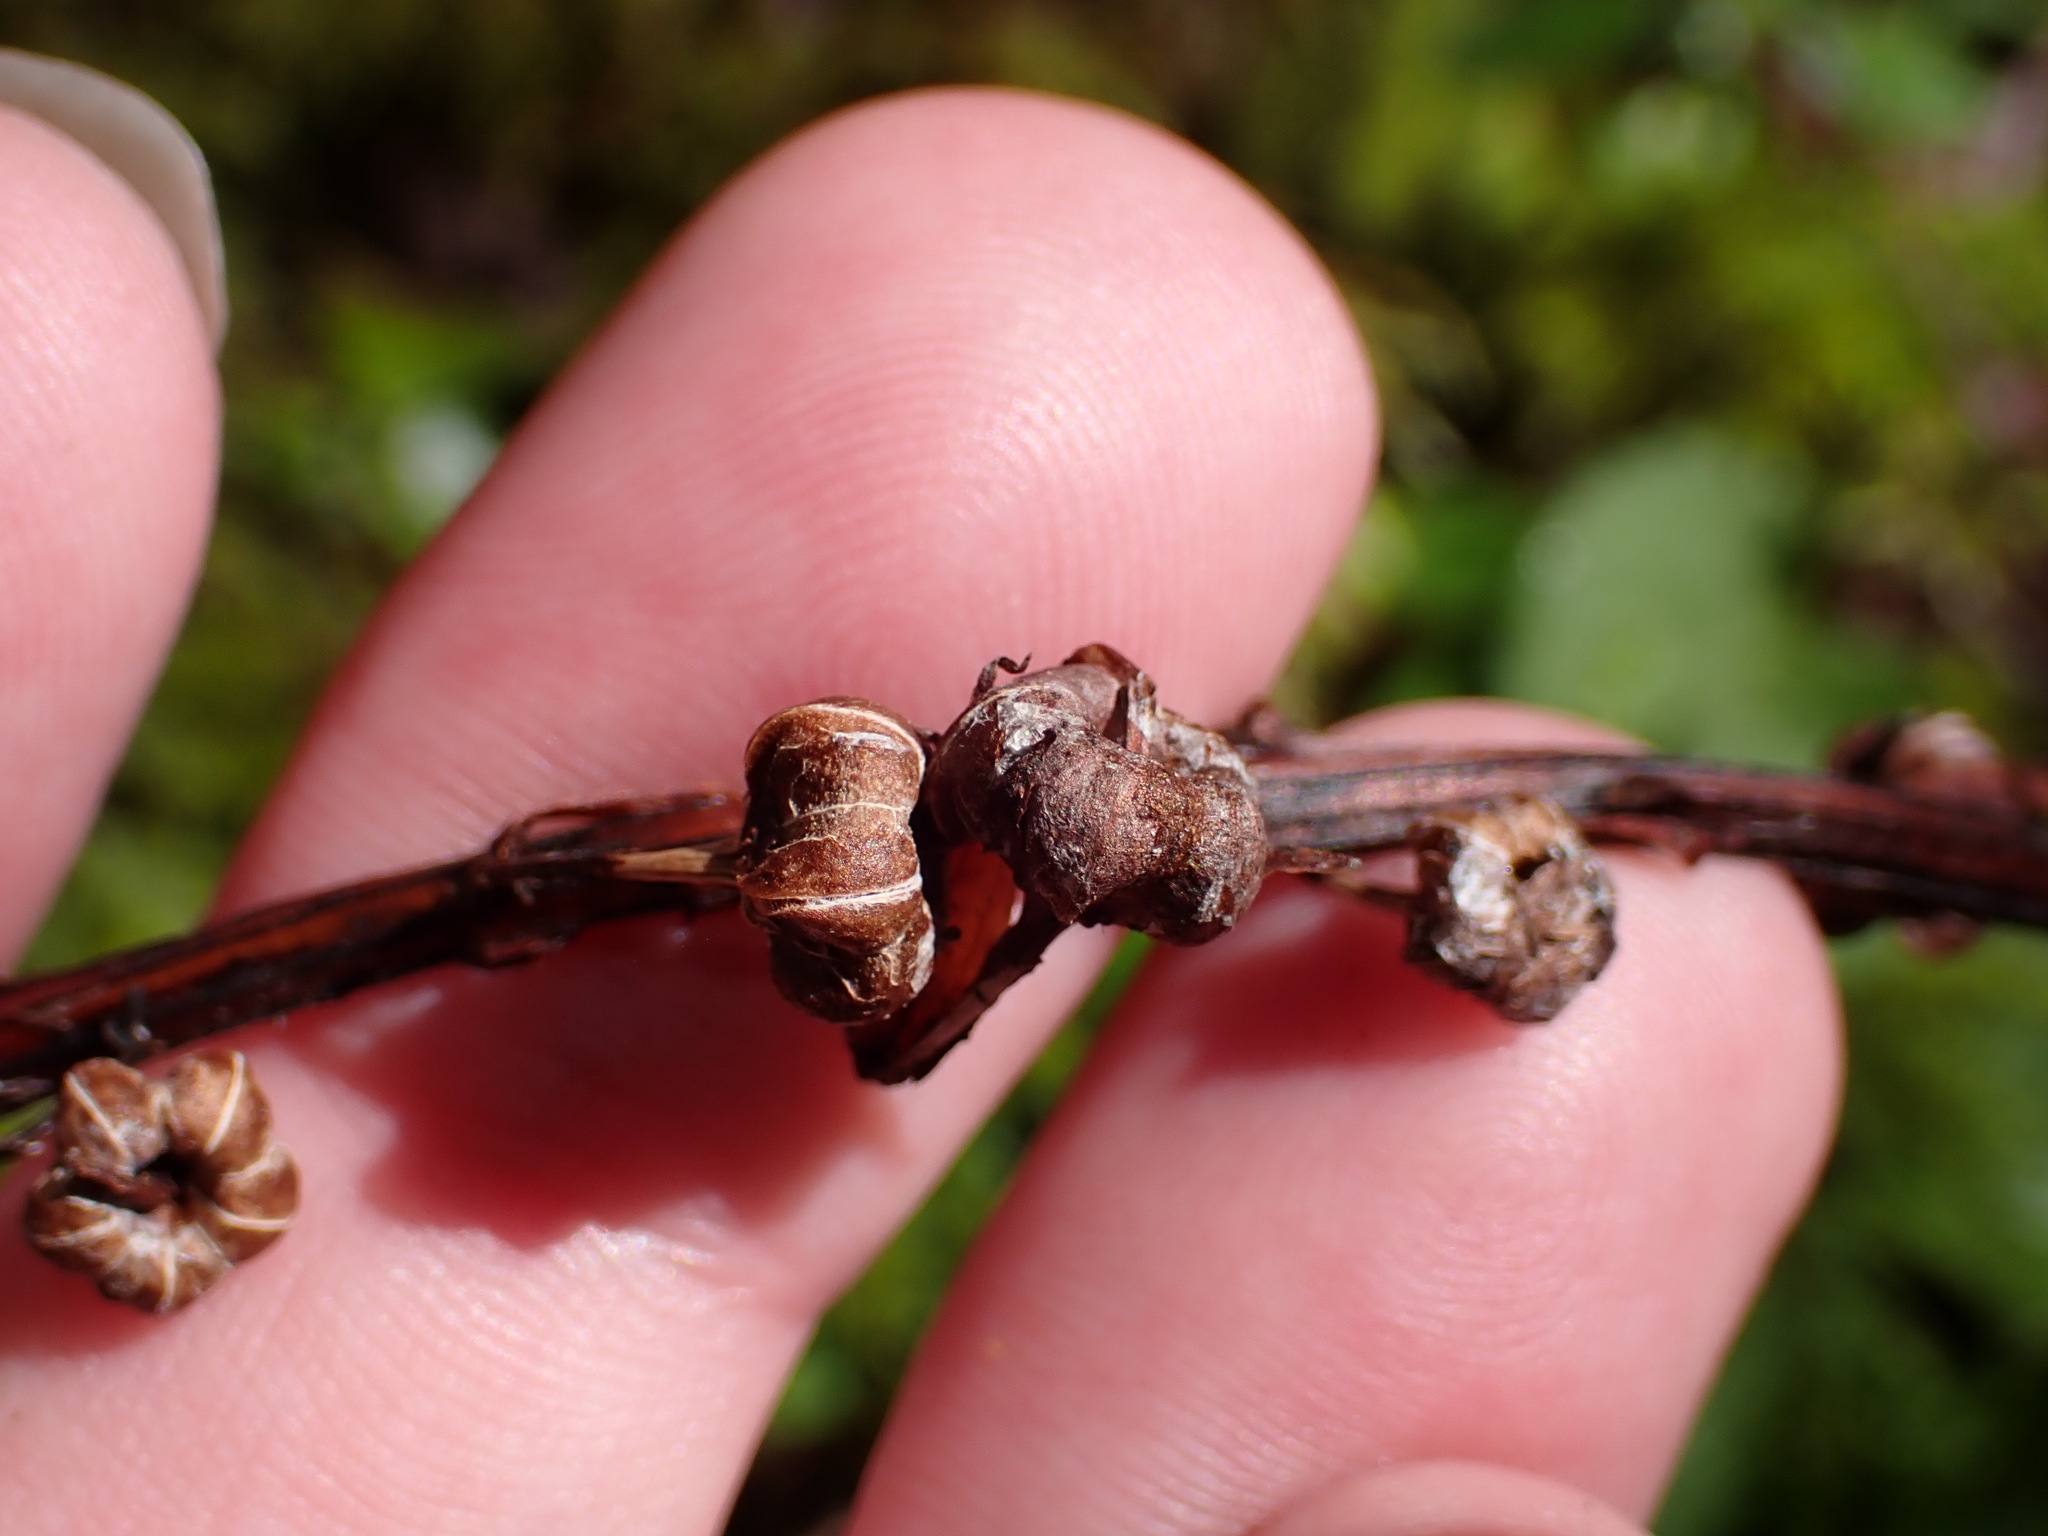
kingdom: Plantae
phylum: Tracheophyta
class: Magnoliopsida
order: Ericales
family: Ericaceae
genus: Pyrola
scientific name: Pyrola asarifolia
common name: Bog wintergreen
